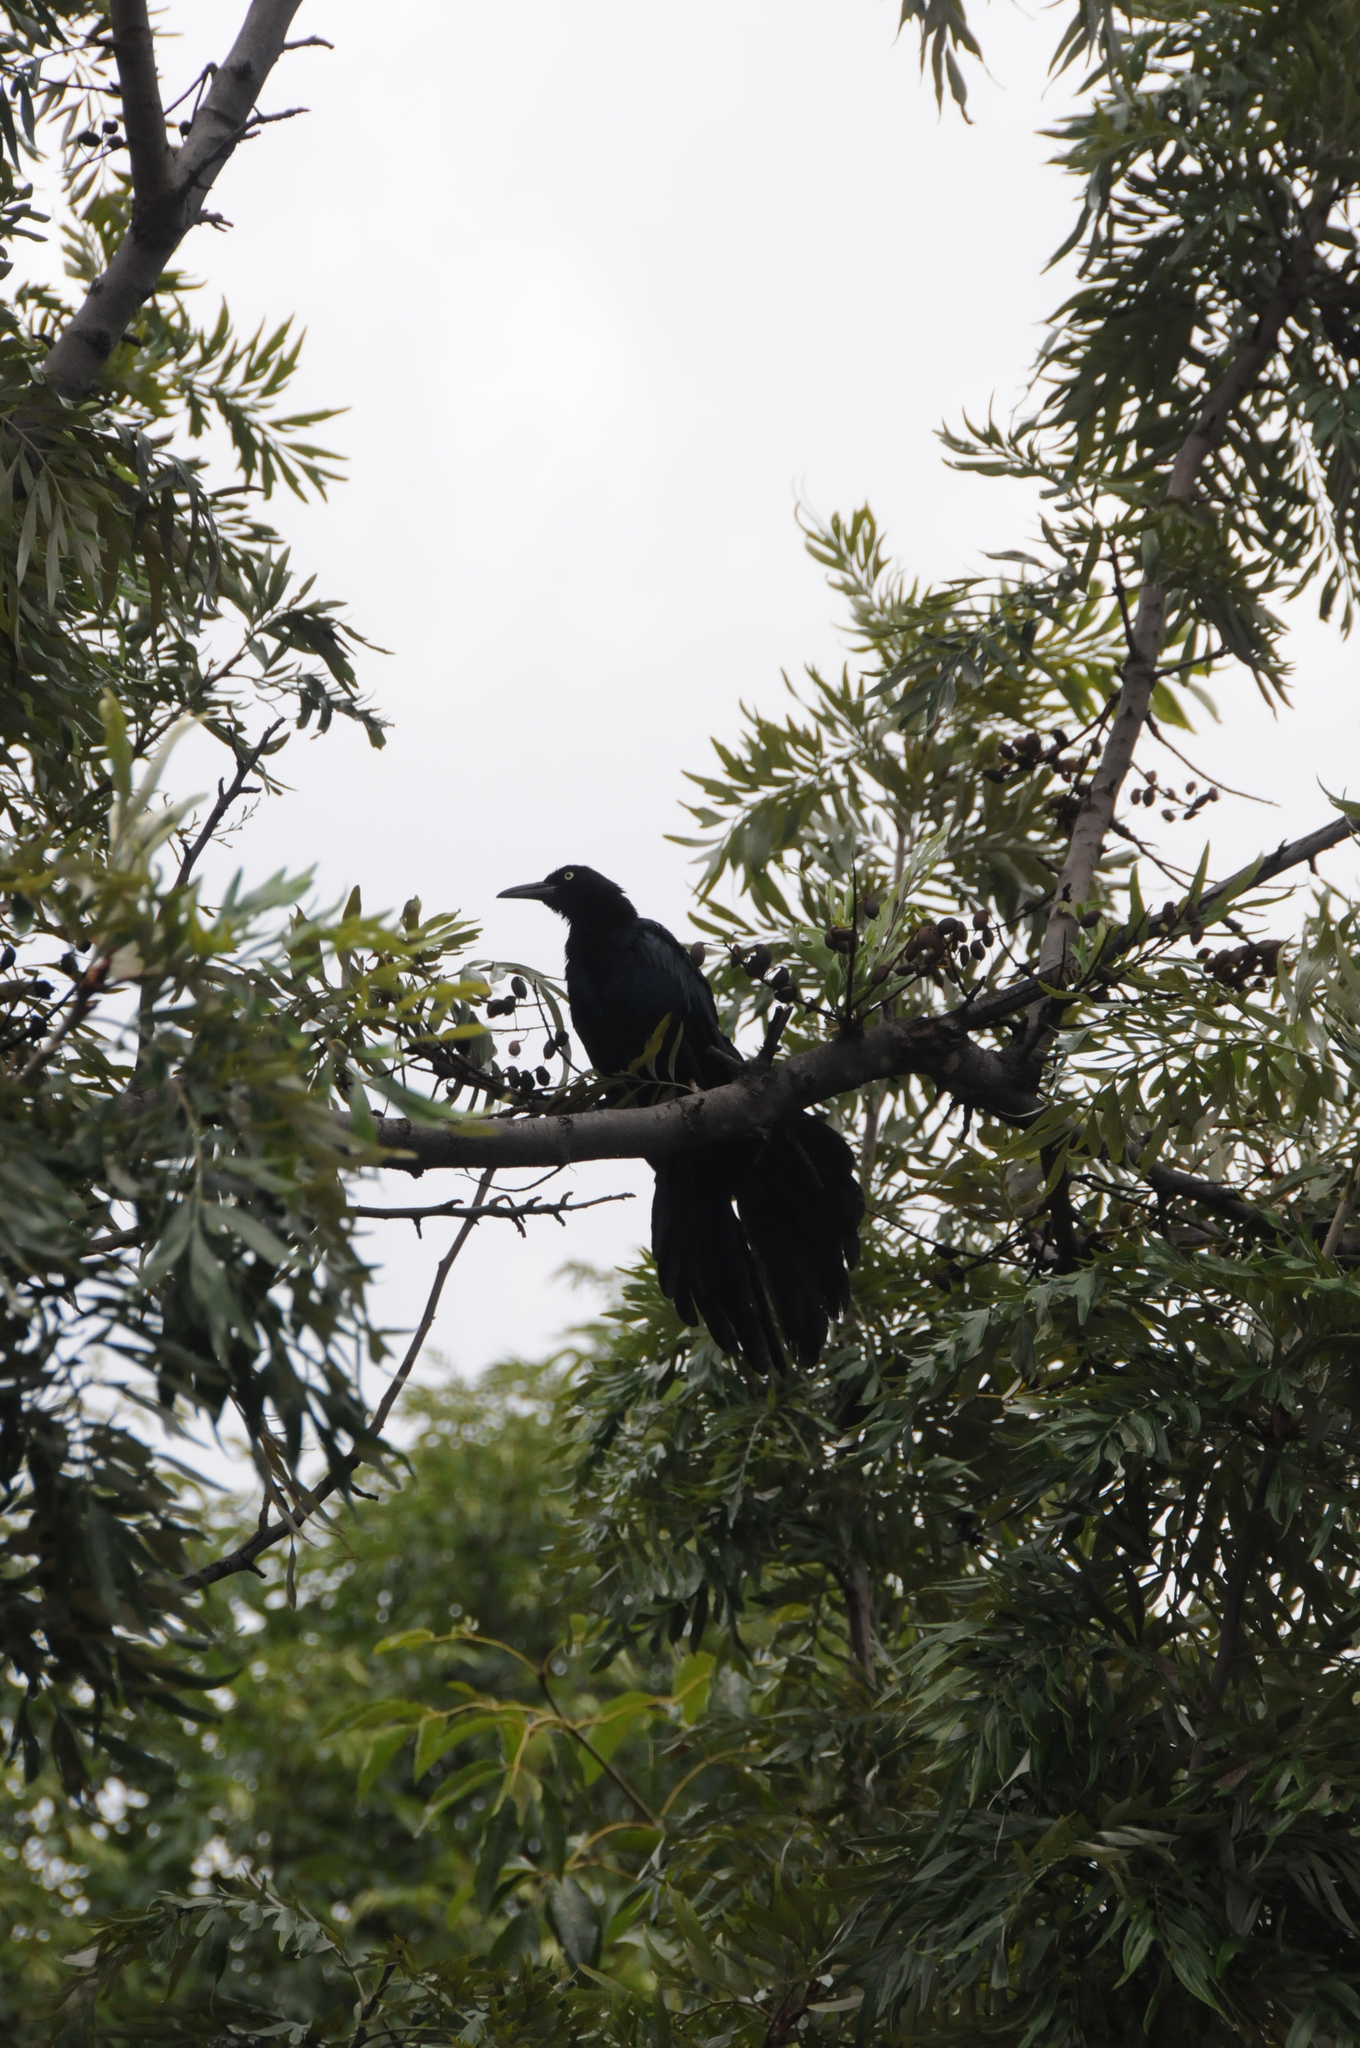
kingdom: Animalia
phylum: Chordata
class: Aves
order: Passeriformes
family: Icteridae
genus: Quiscalus
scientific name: Quiscalus mexicanus
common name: Great-tailed grackle
